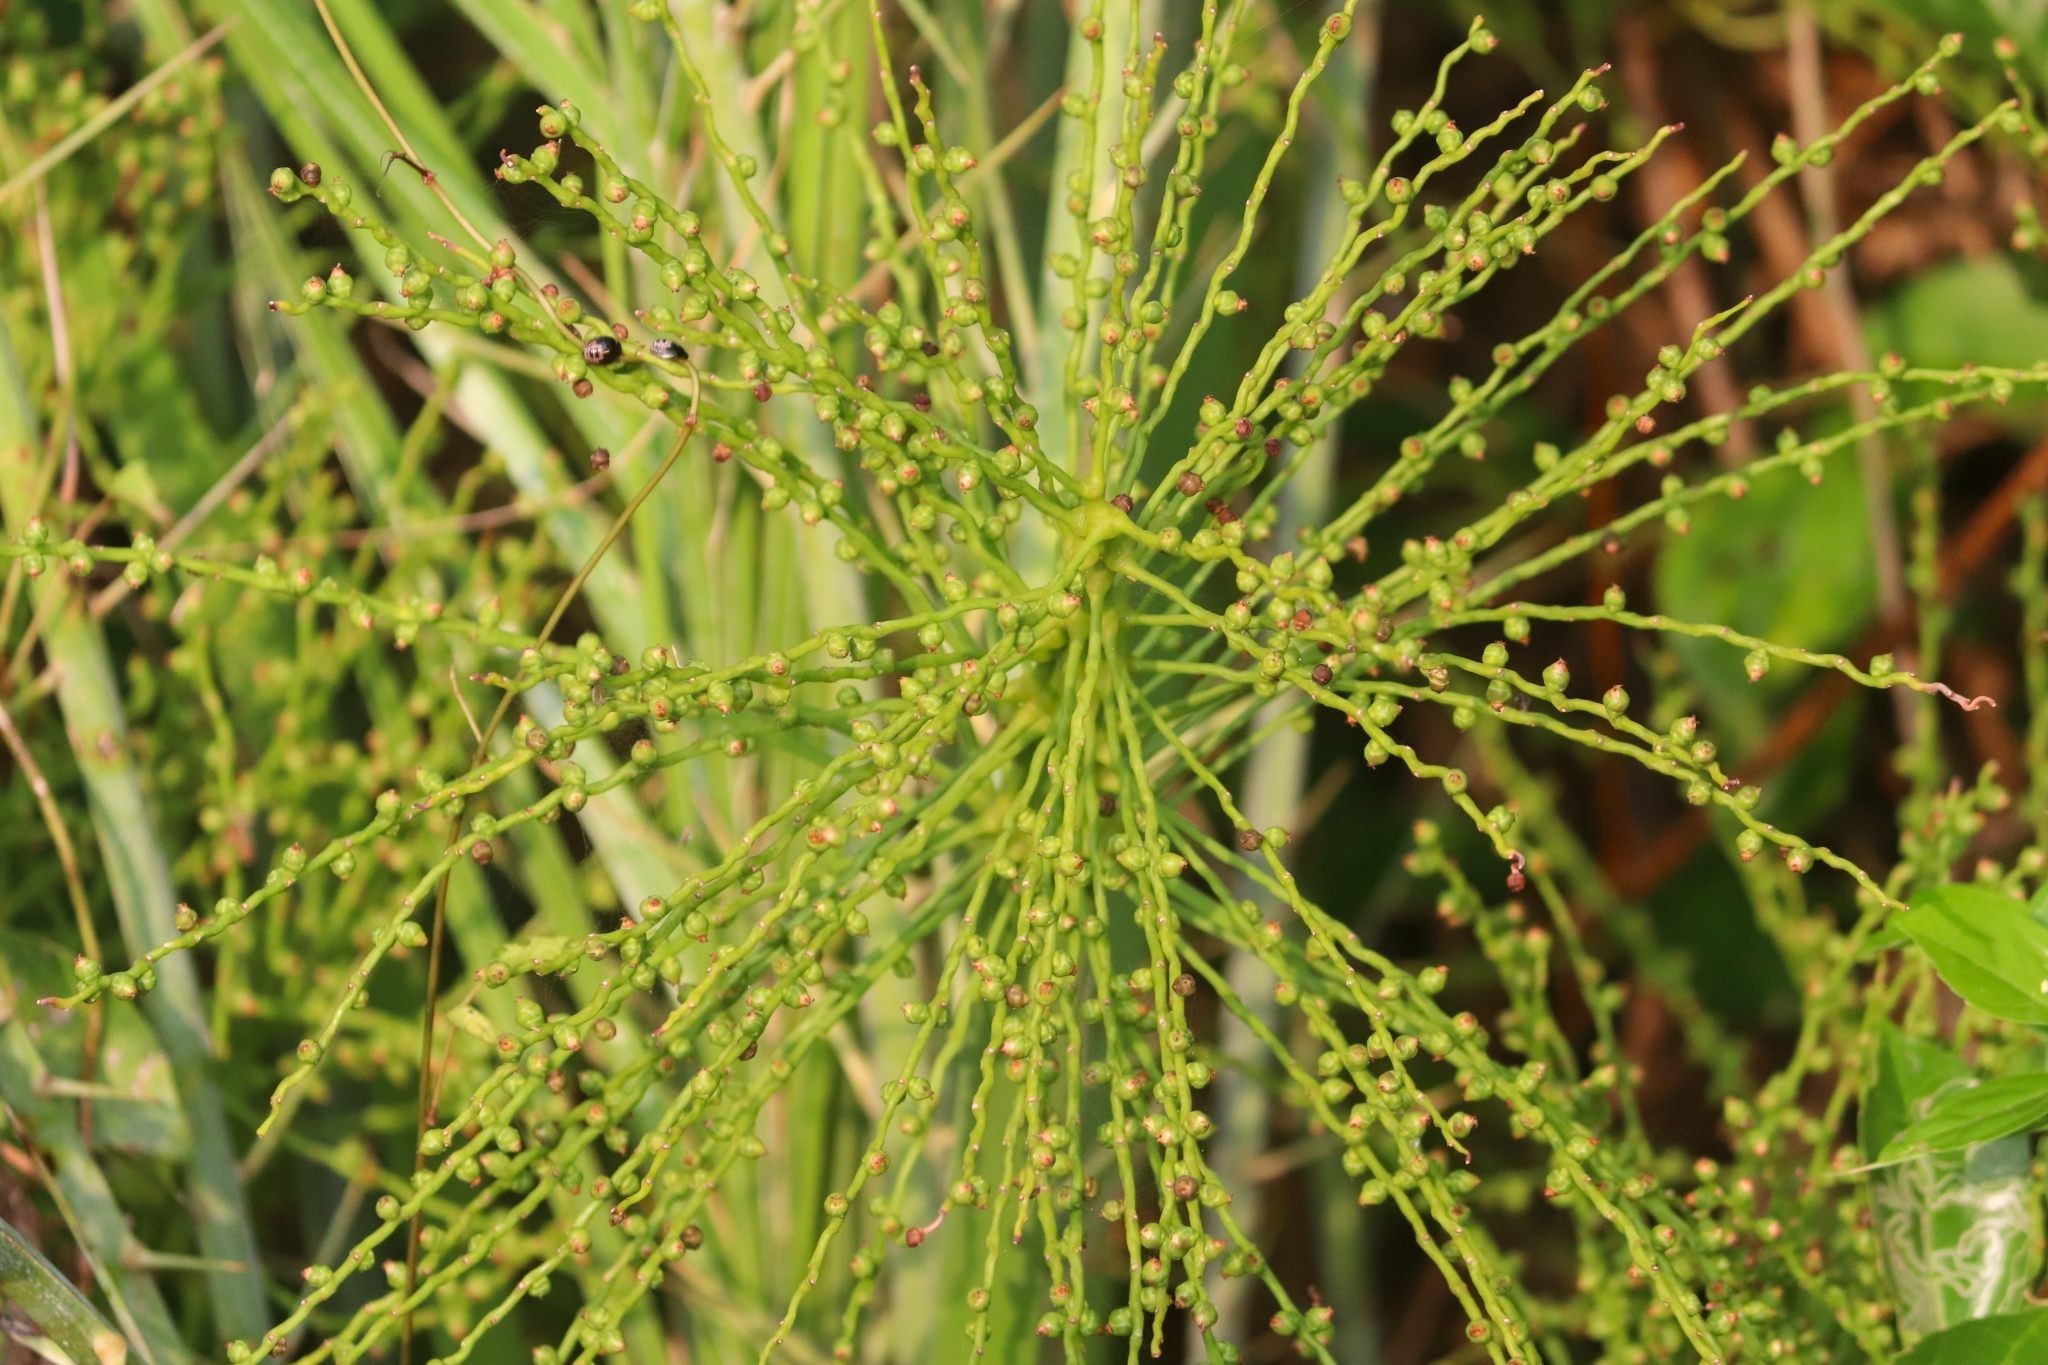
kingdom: Plantae
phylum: Tracheophyta
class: Liliopsida
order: Arecales
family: Arecaceae
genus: Phoenix
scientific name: Phoenix pusilla
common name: Flour palm
